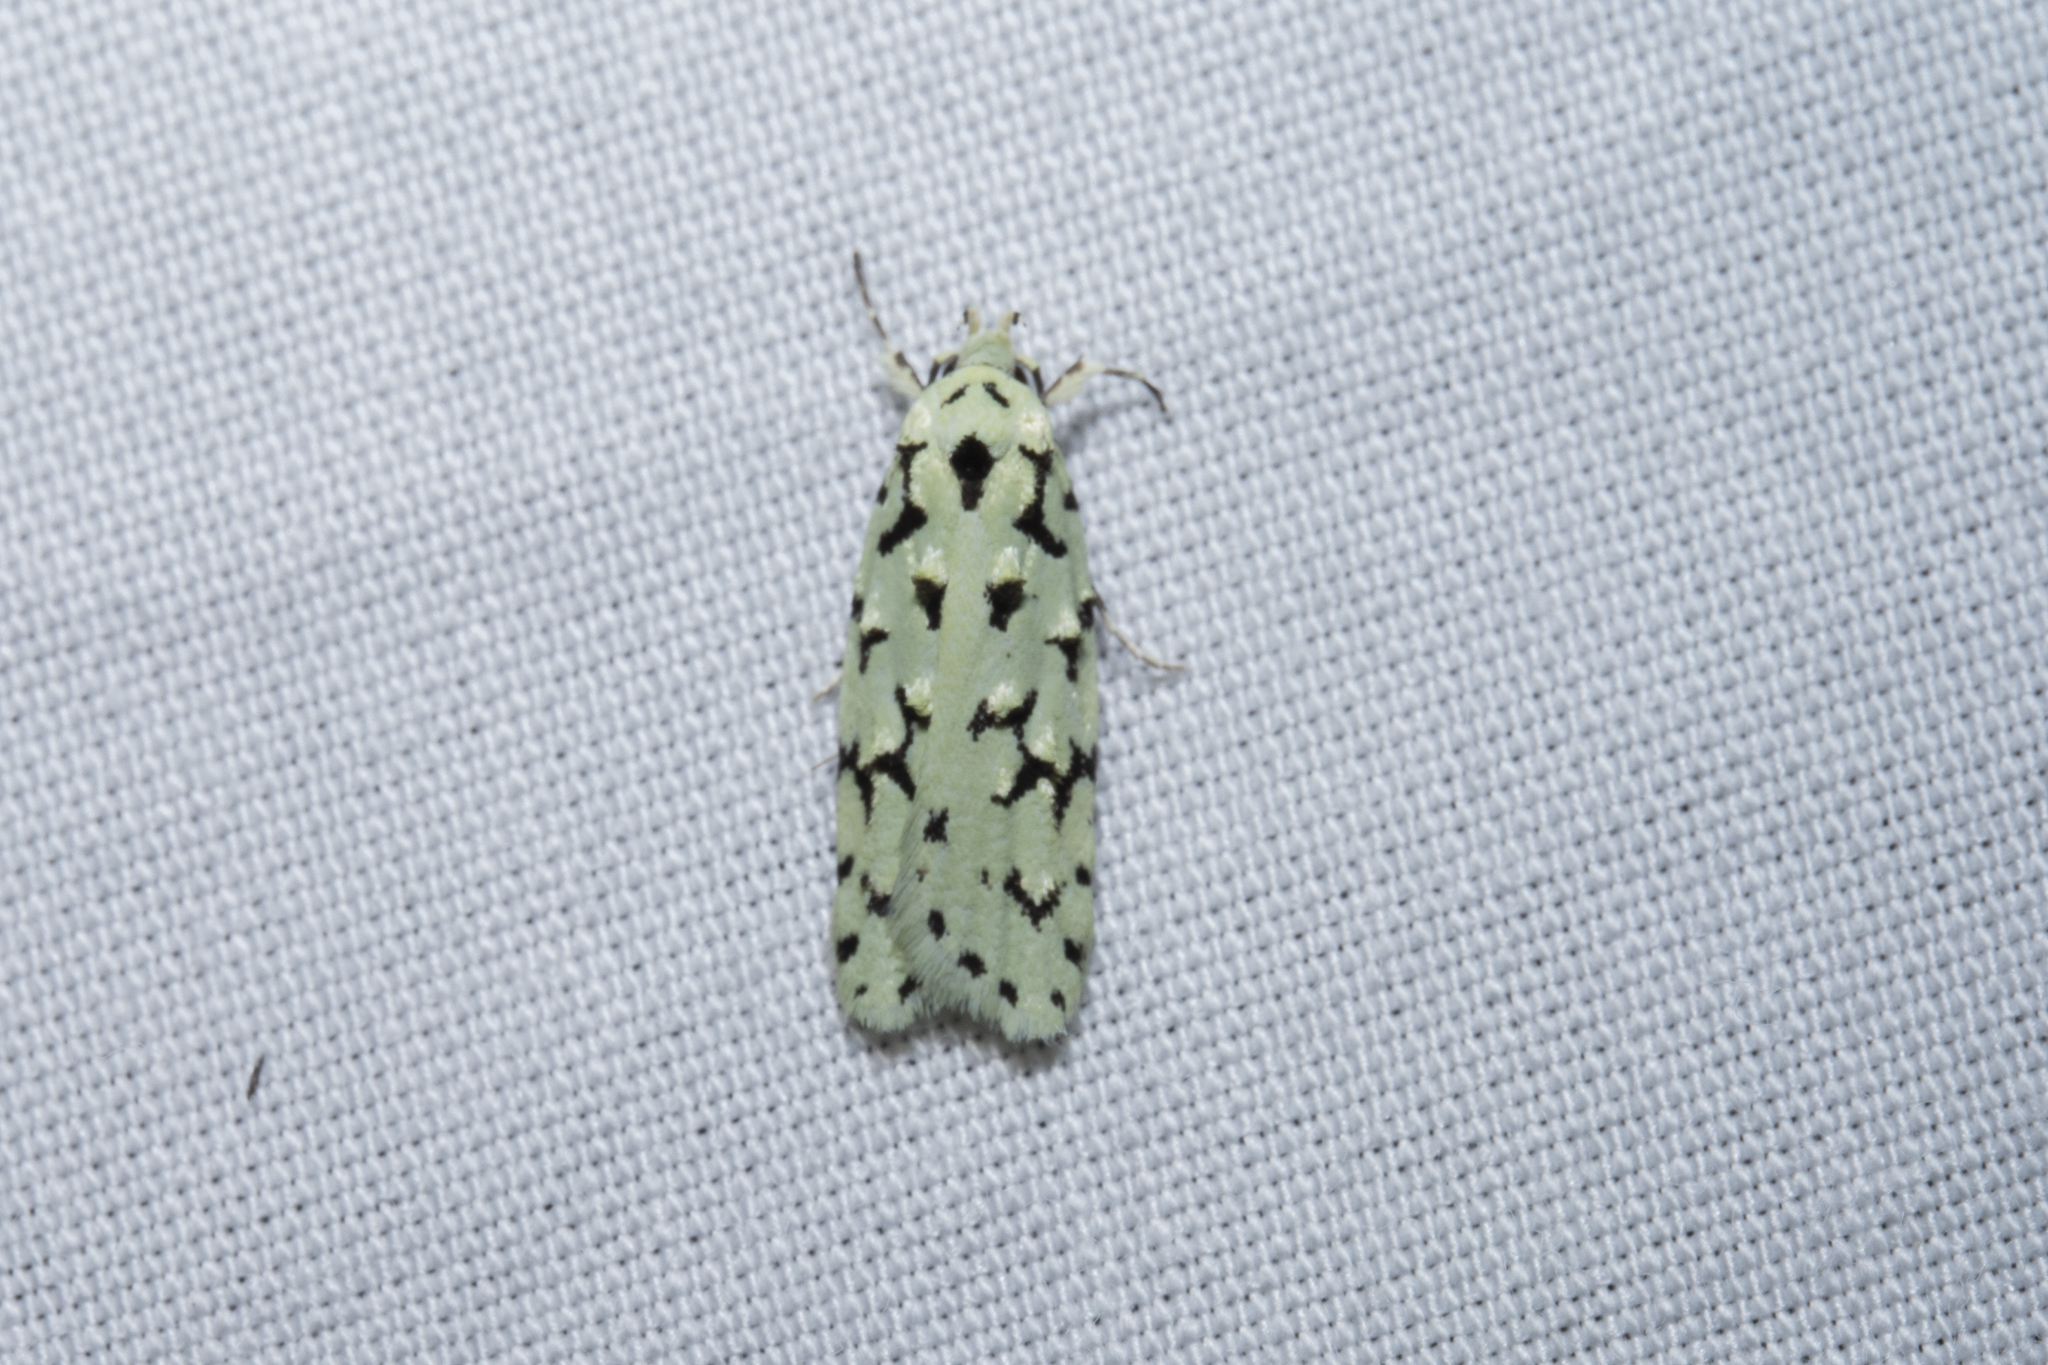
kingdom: Animalia
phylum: Arthropoda
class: Insecta
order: Lepidoptera
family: Oecophoridae
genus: Izatha
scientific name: Izatha huttoni
